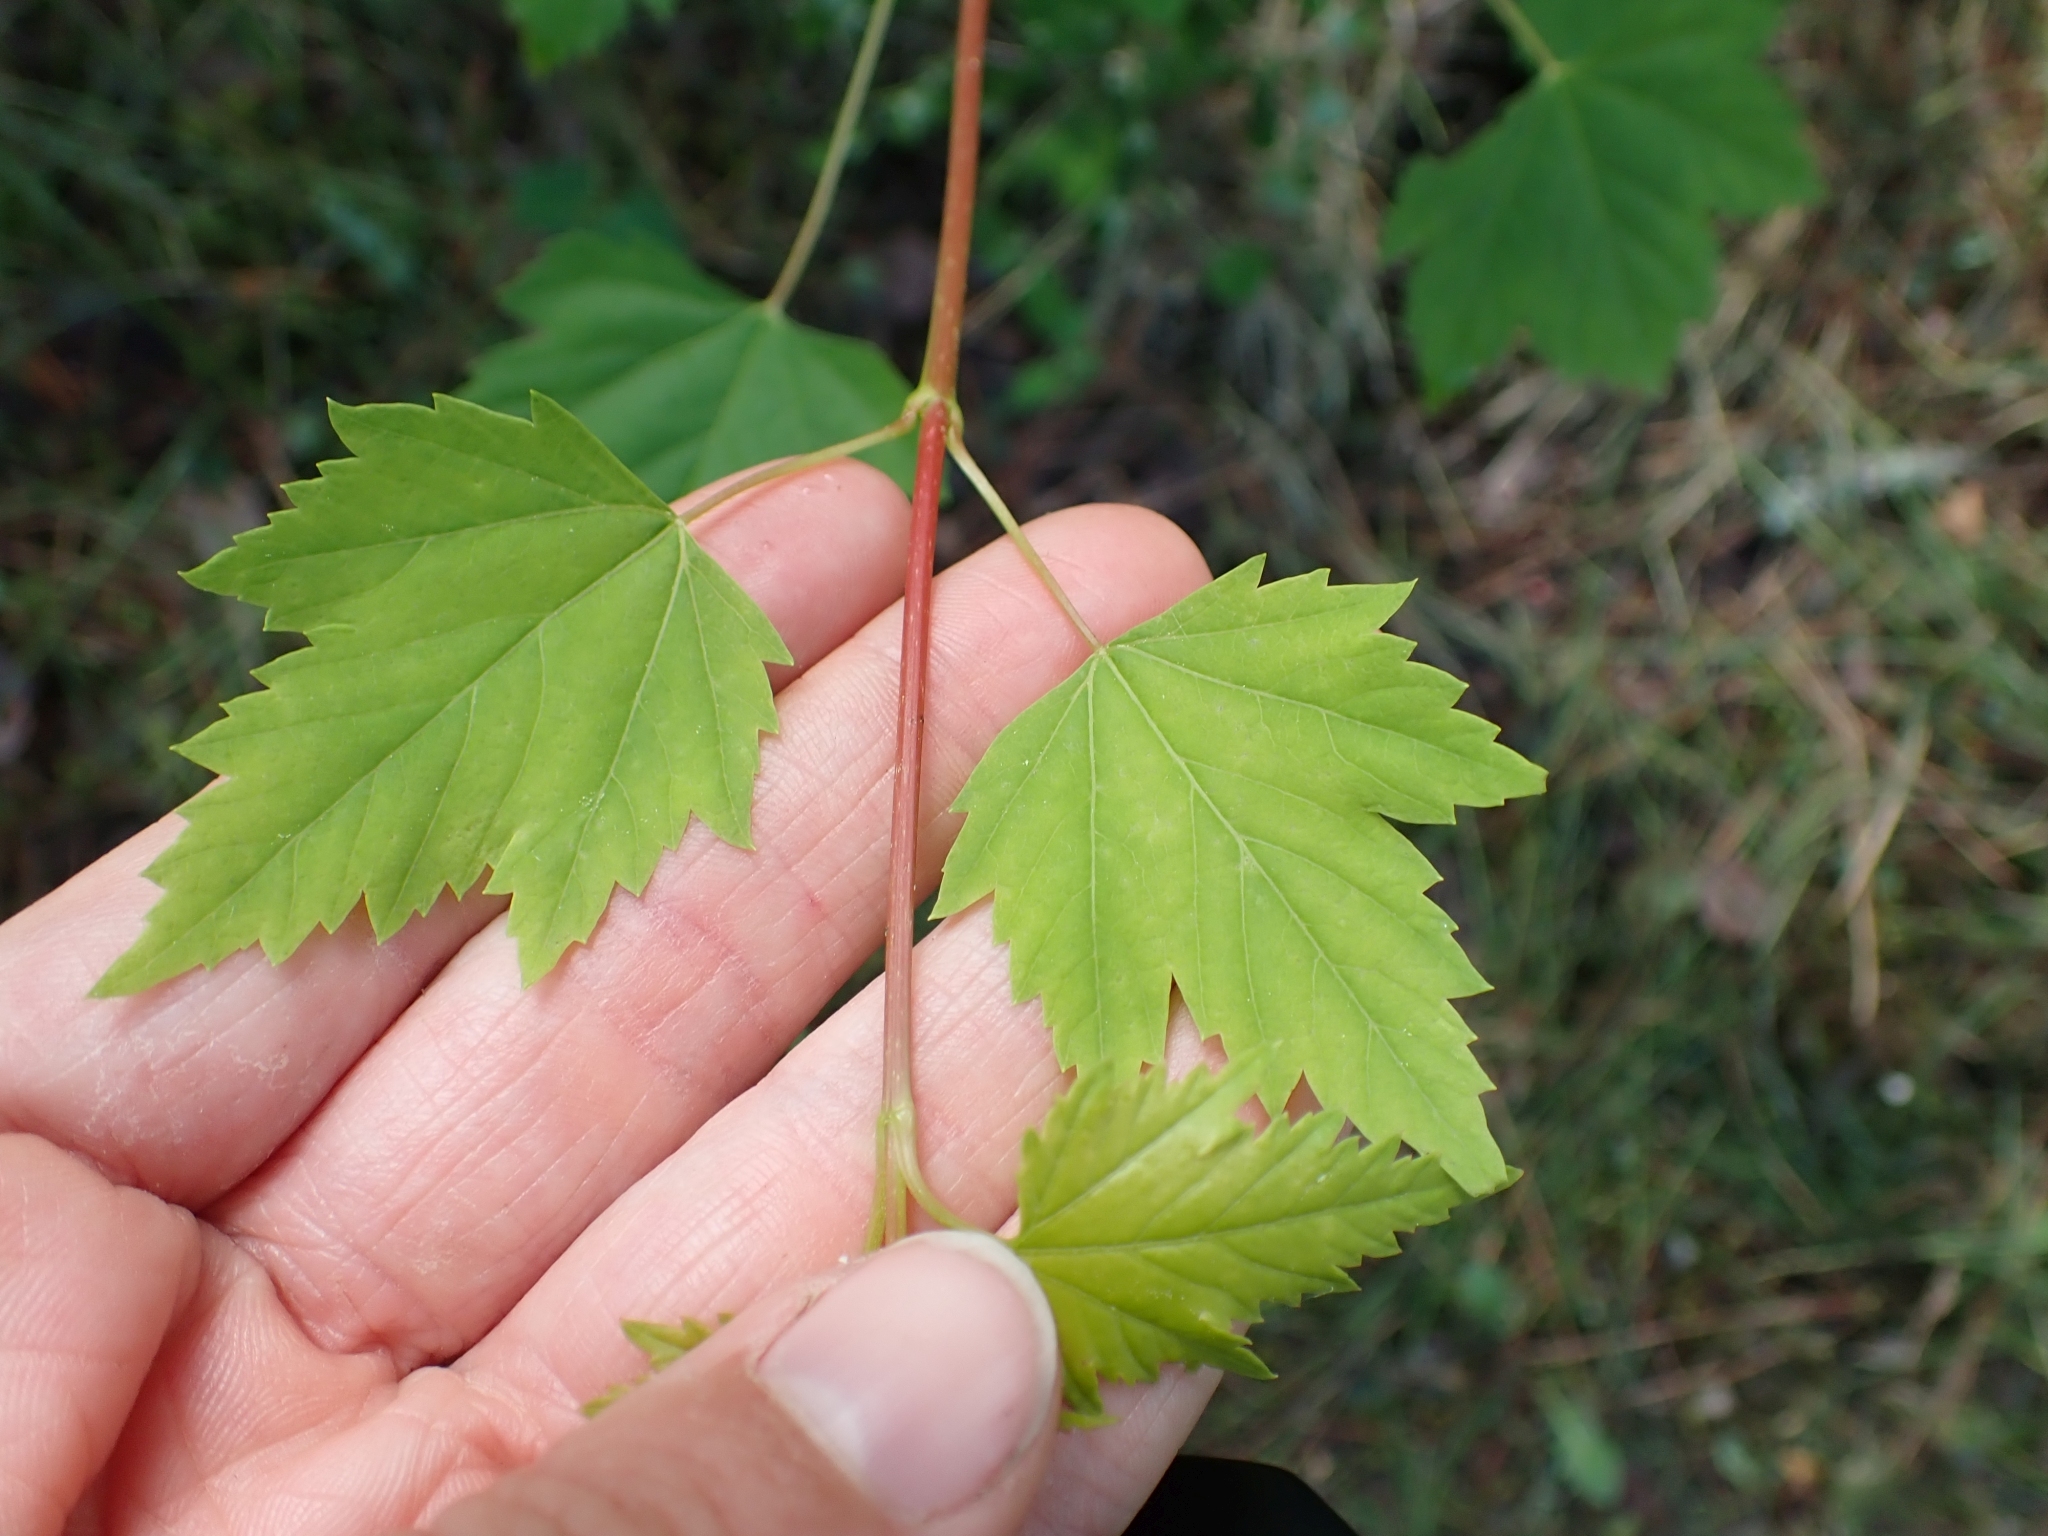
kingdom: Plantae
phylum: Tracheophyta
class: Magnoliopsida
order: Sapindales
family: Sapindaceae
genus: Acer
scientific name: Acer glabrum
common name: Rocky mountain maple
